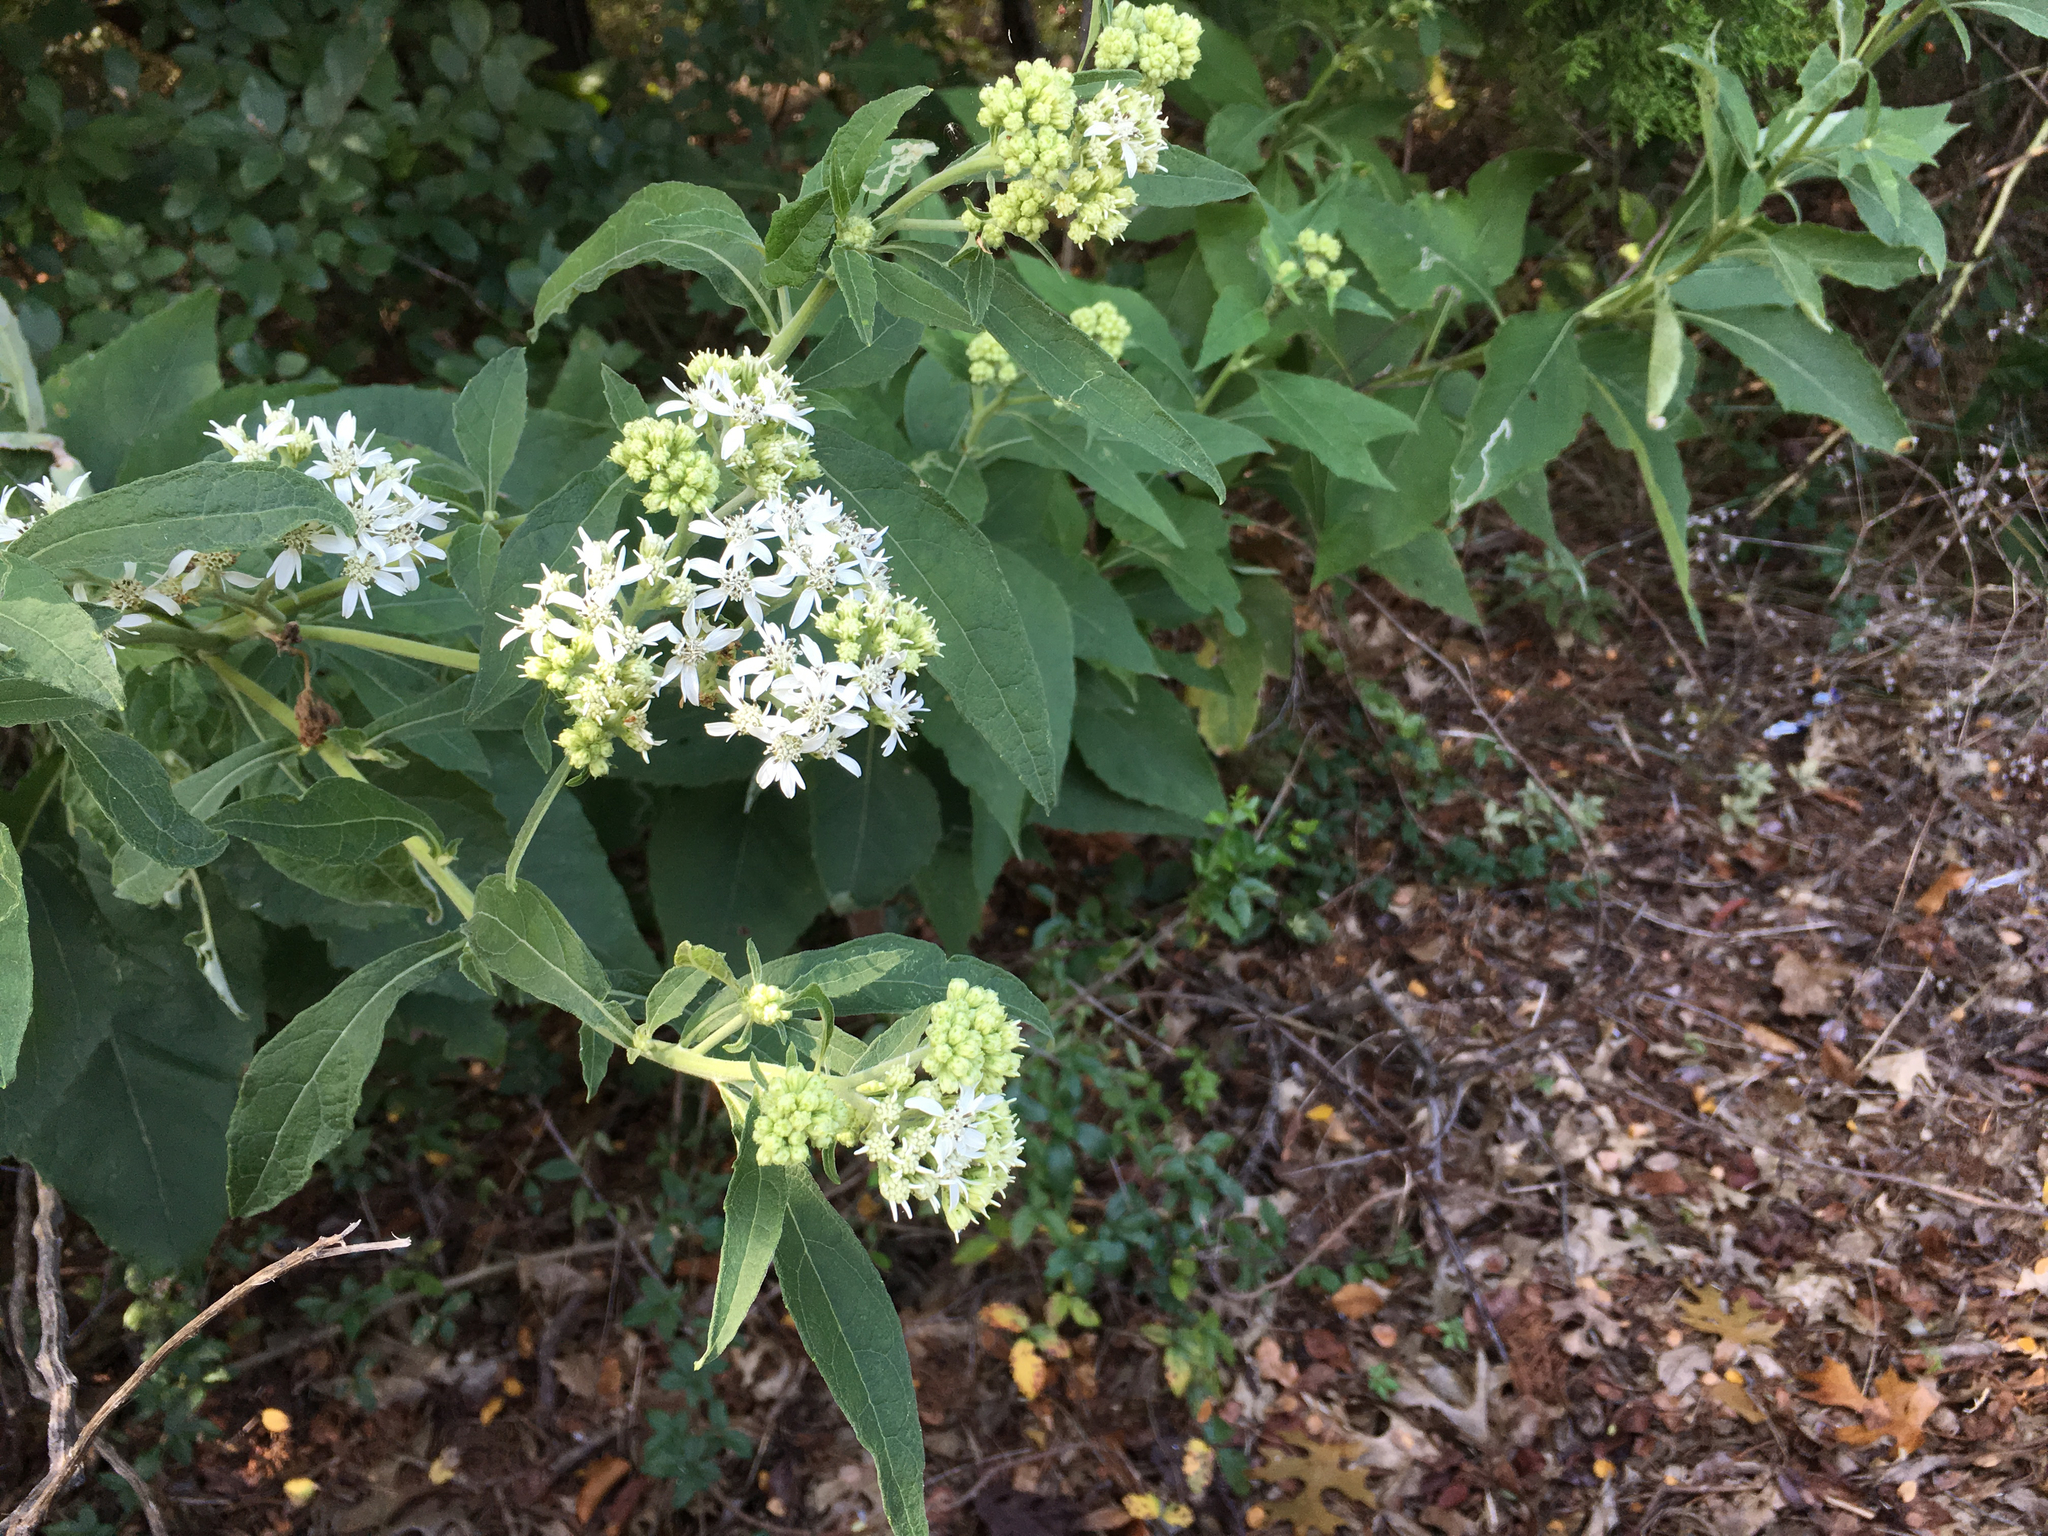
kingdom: Plantae
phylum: Tracheophyta
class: Magnoliopsida
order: Asterales
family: Asteraceae
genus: Verbesina
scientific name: Verbesina virginica
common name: Frostweed
